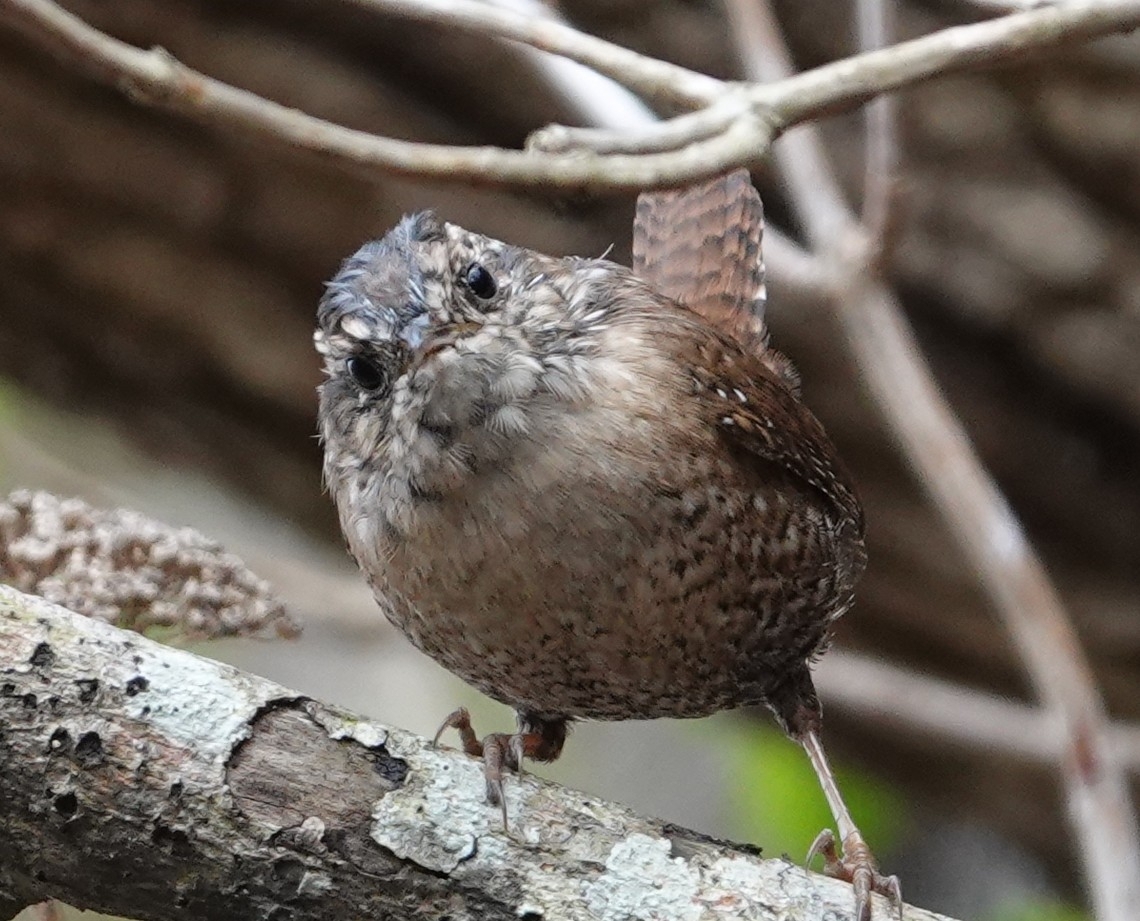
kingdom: Animalia
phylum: Chordata
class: Aves
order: Passeriformes
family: Troglodytidae
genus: Troglodytes
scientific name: Troglodytes hiemalis
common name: Winter wren
